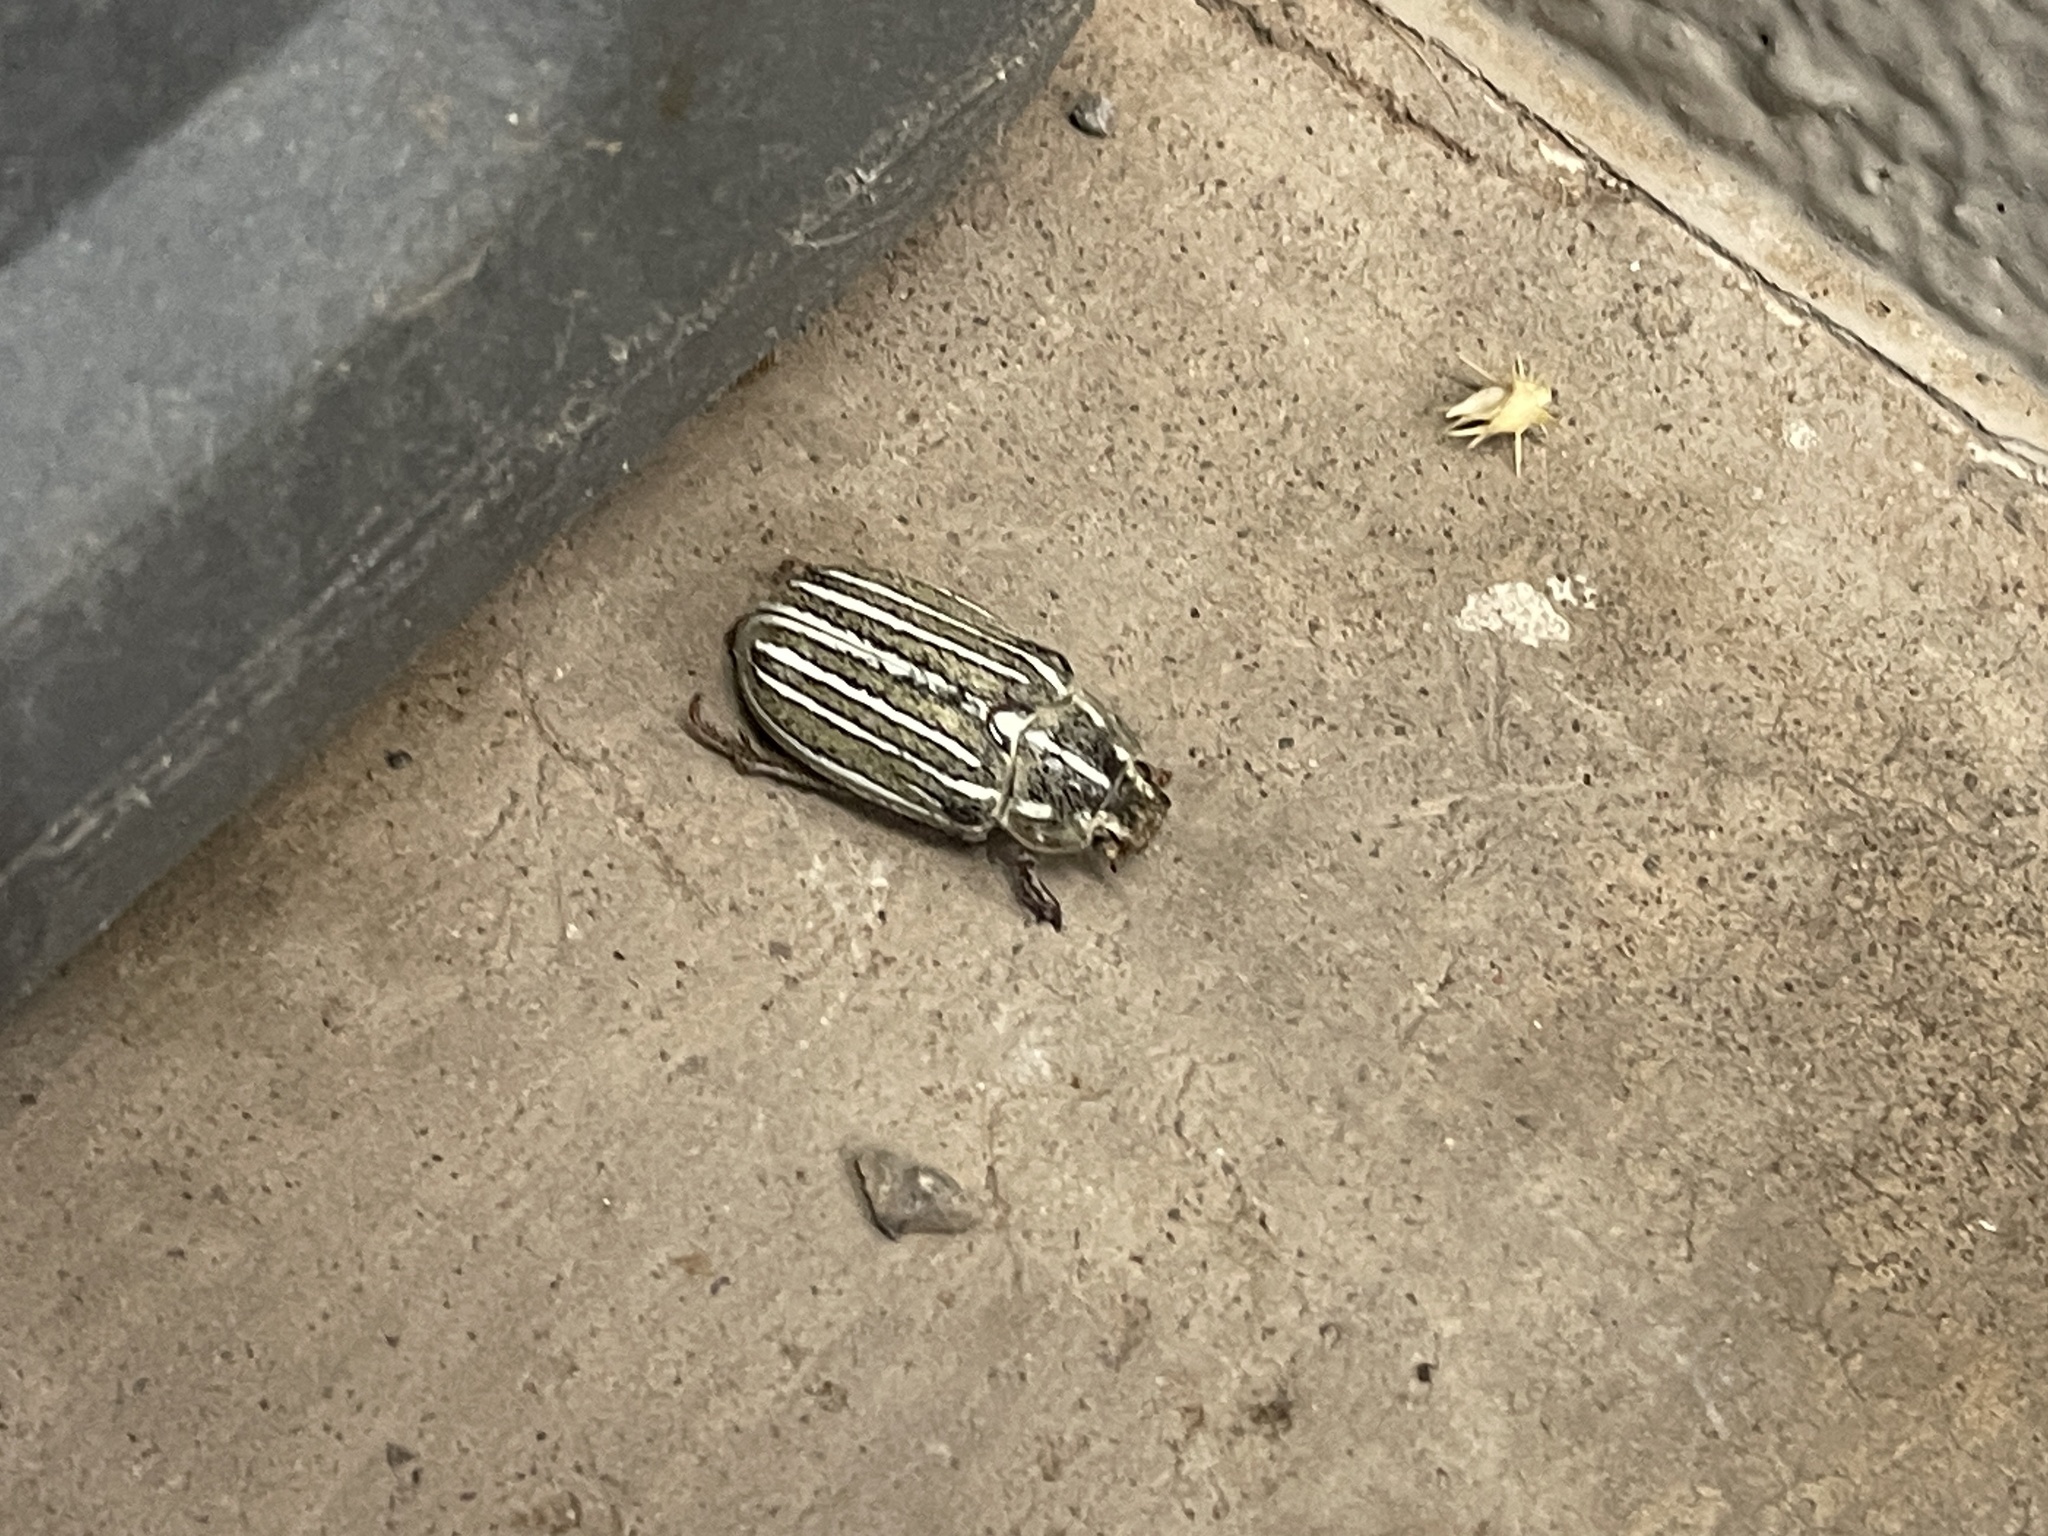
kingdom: Animalia
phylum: Arthropoda
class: Insecta
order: Coleoptera
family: Scarabaeidae
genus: Polyphylla
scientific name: Polyphylla decemlineata
